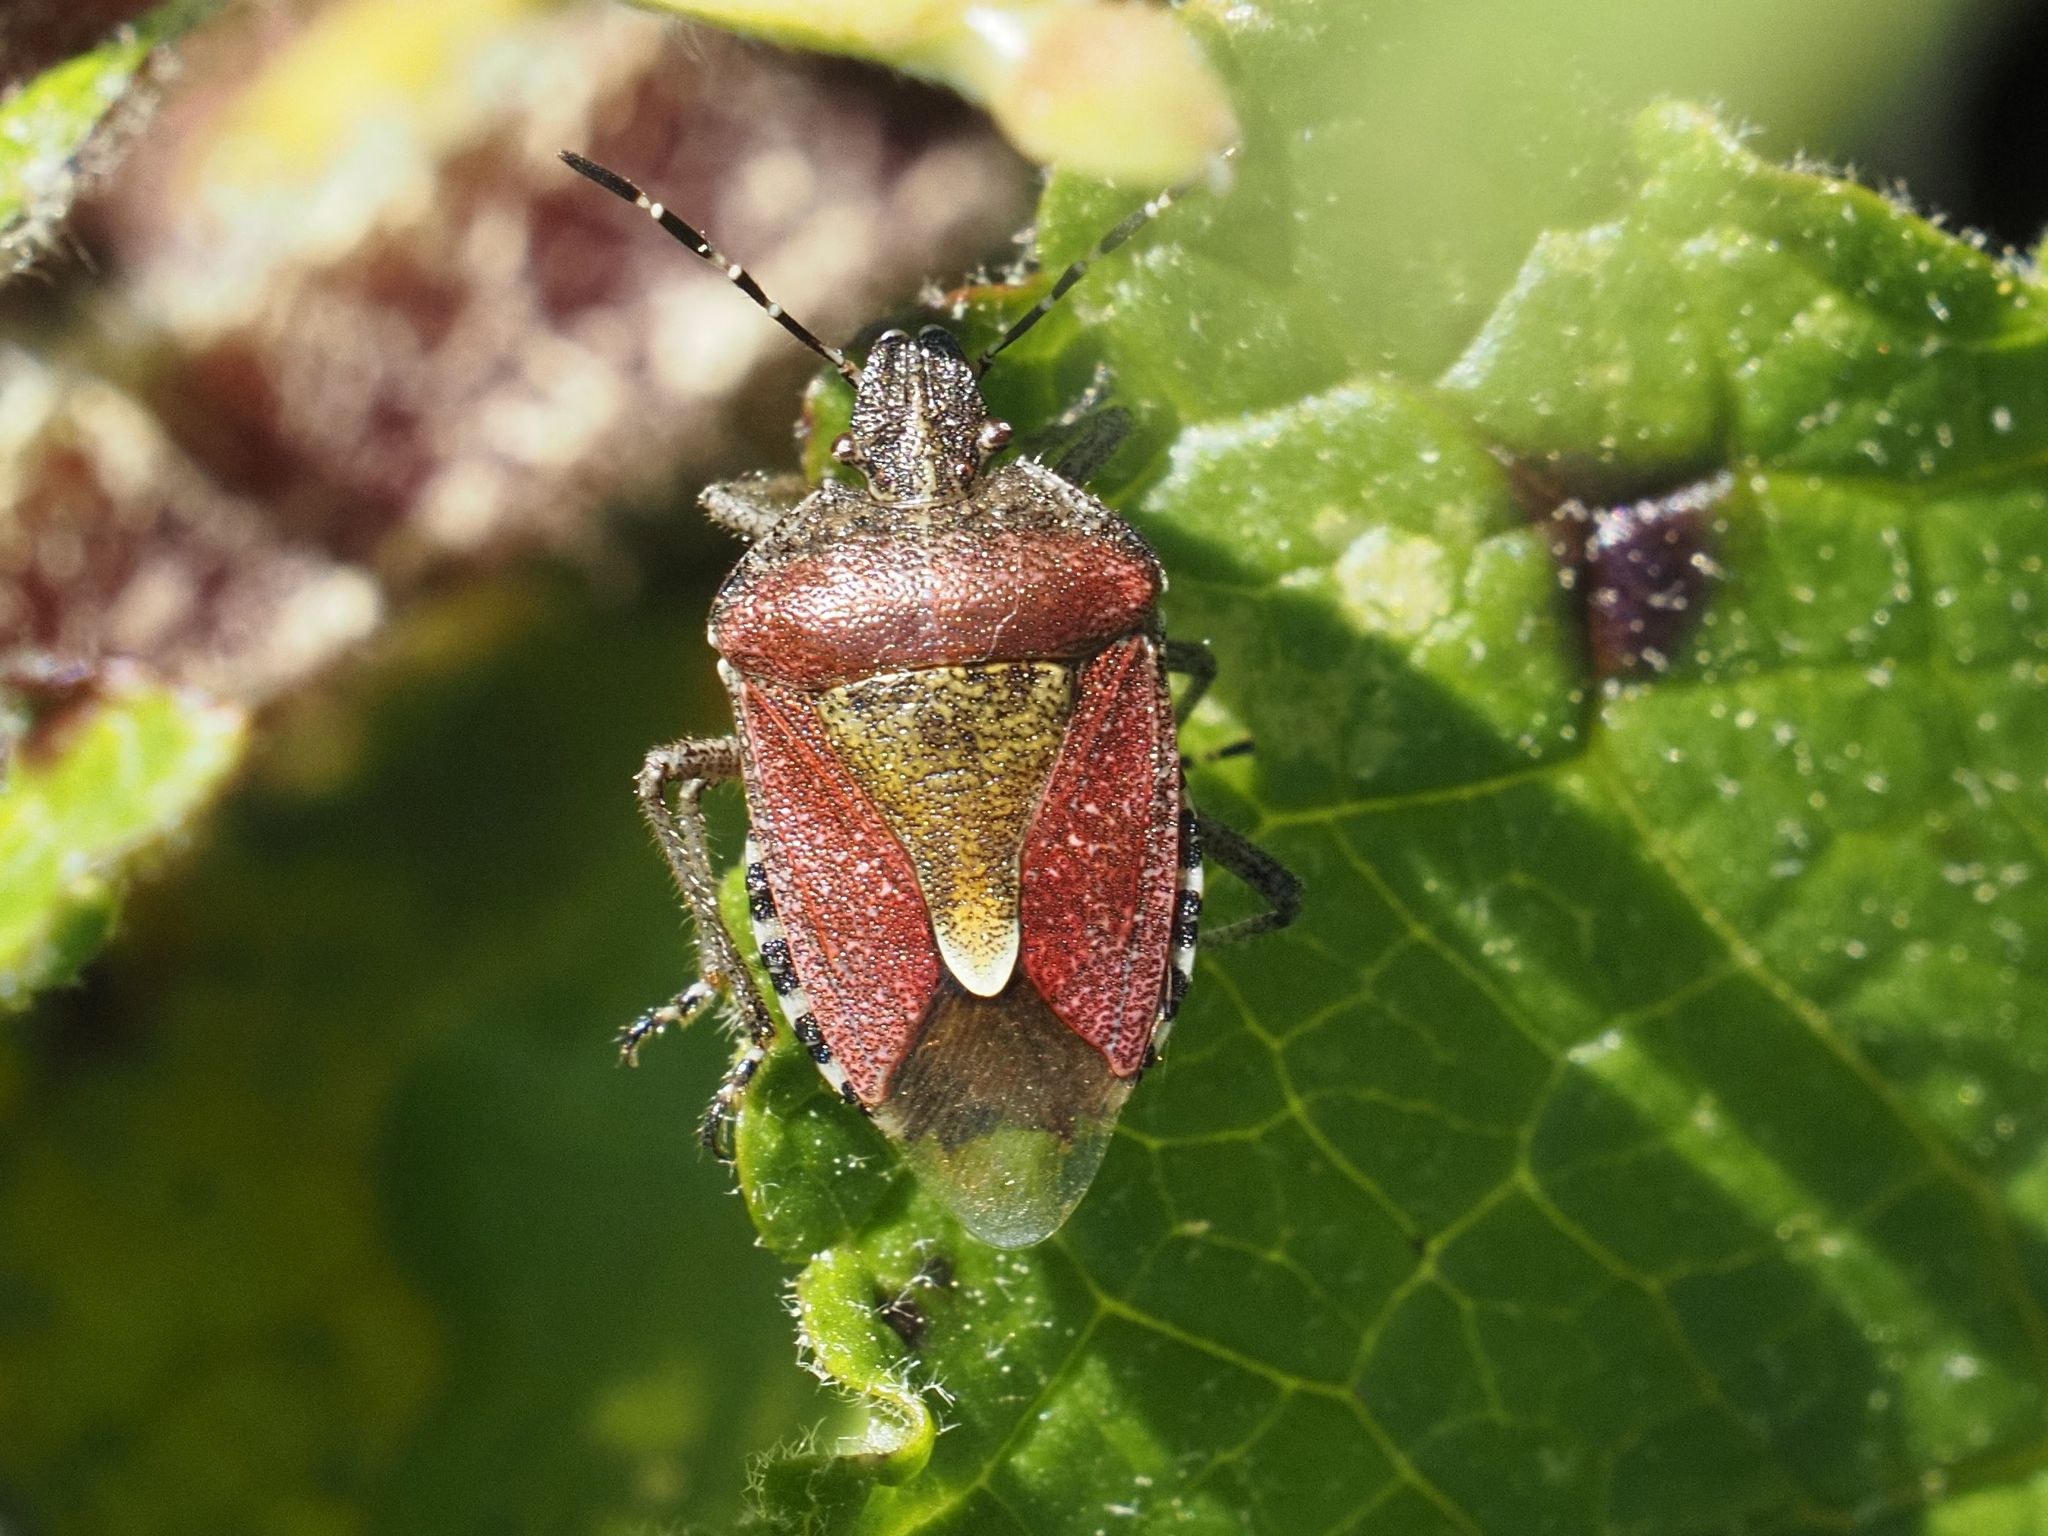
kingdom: Animalia
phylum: Arthropoda
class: Insecta
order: Hemiptera
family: Pentatomidae
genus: Dolycoris
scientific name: Dolycoris baccarum
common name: Sloe bug
